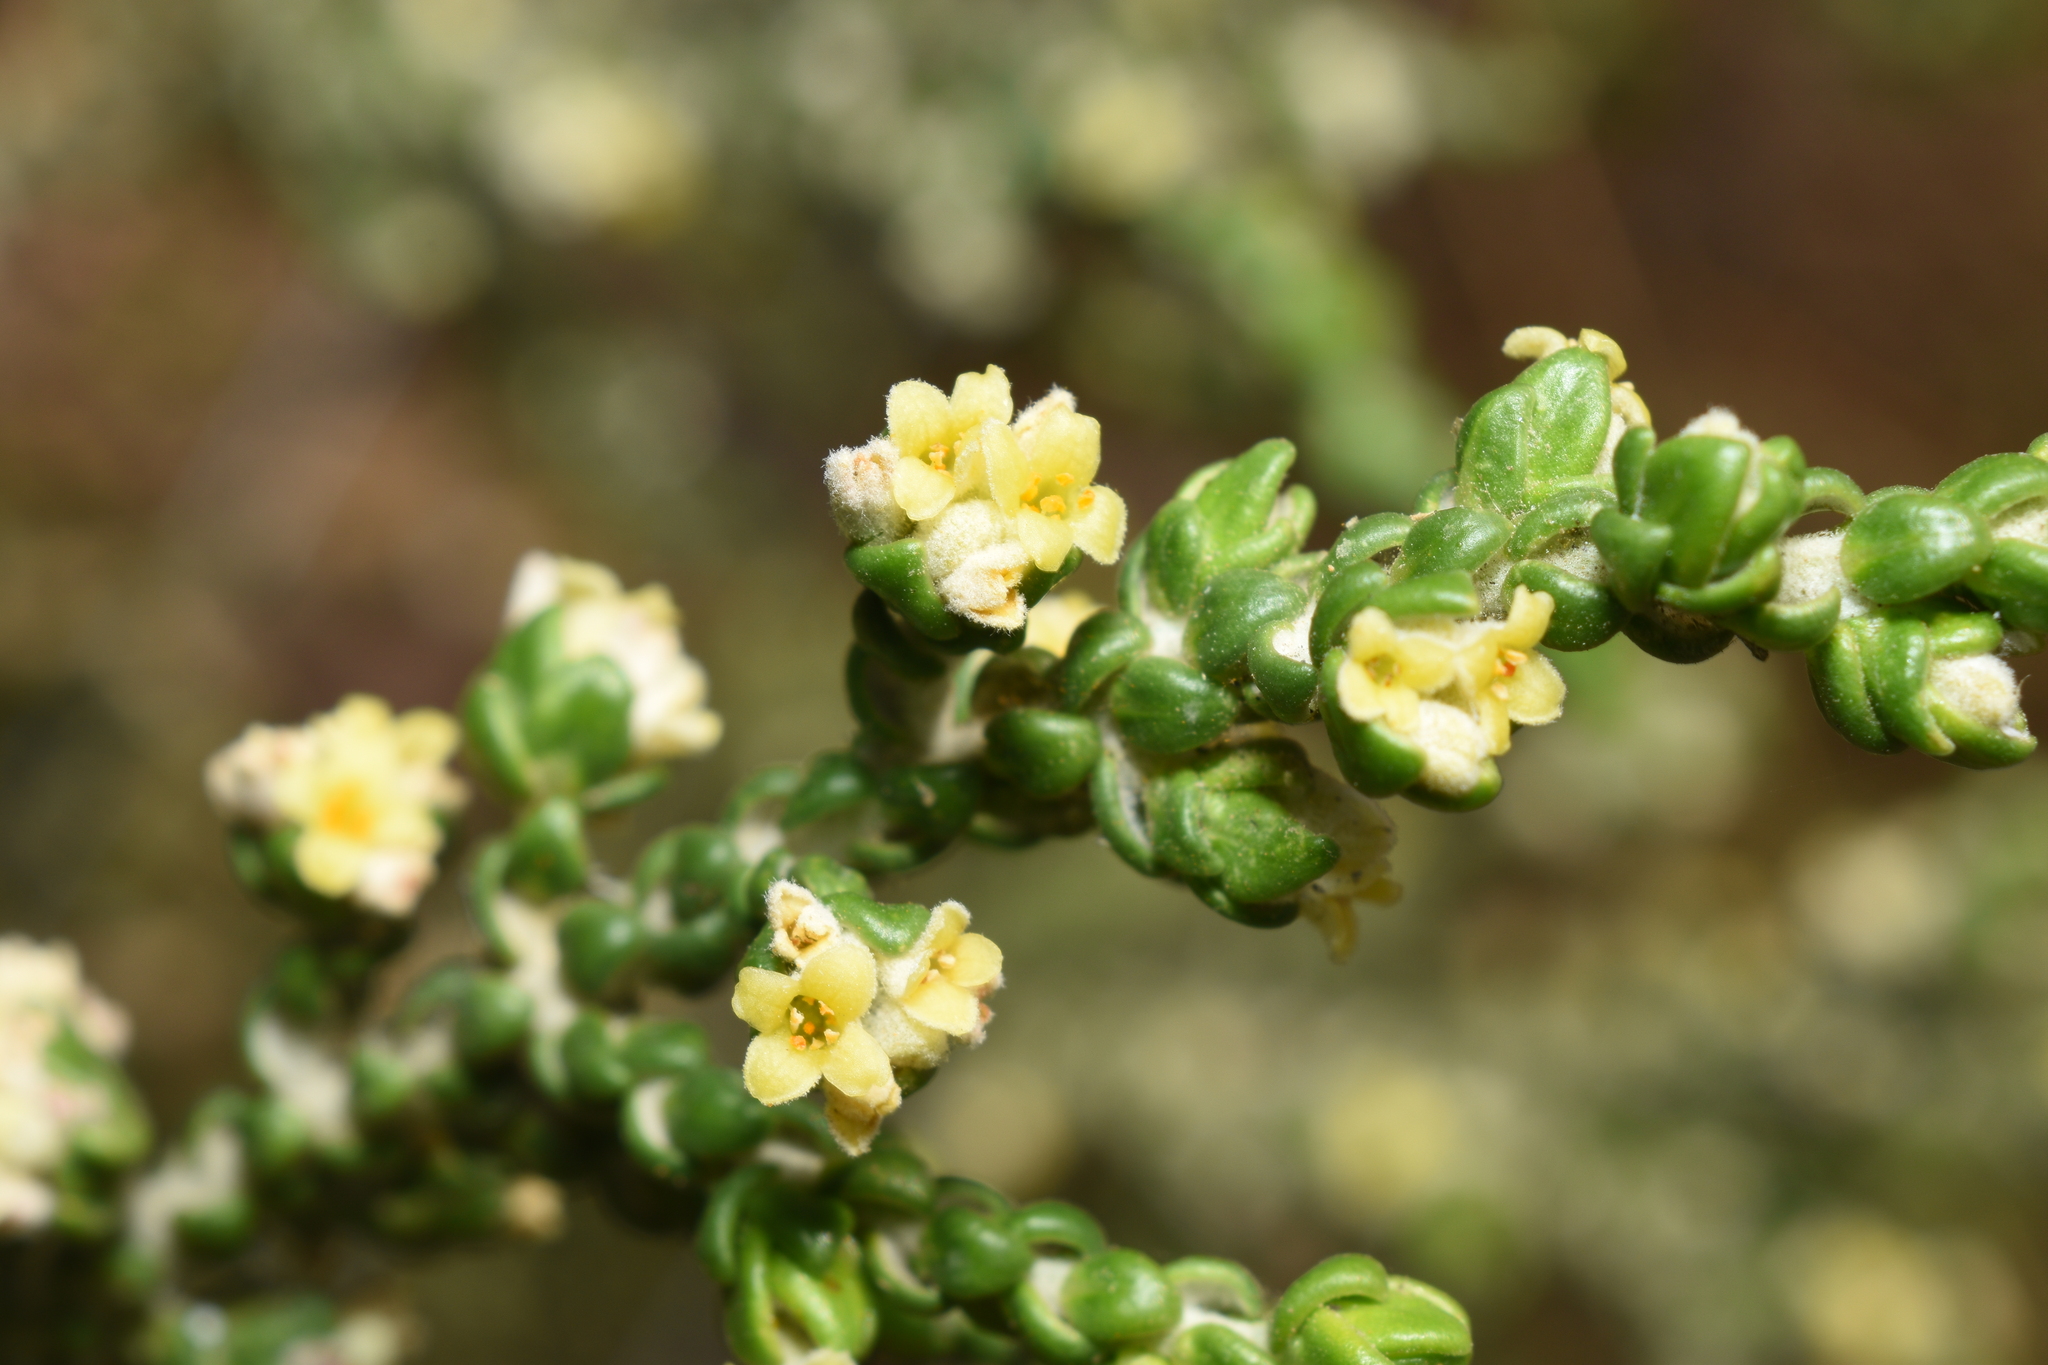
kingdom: Plantae
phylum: Tracheophyta
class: Magnoliopsida
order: Malvales
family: Thymelaeaceae
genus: Thymelaea
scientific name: Thymelaea hirsuta
